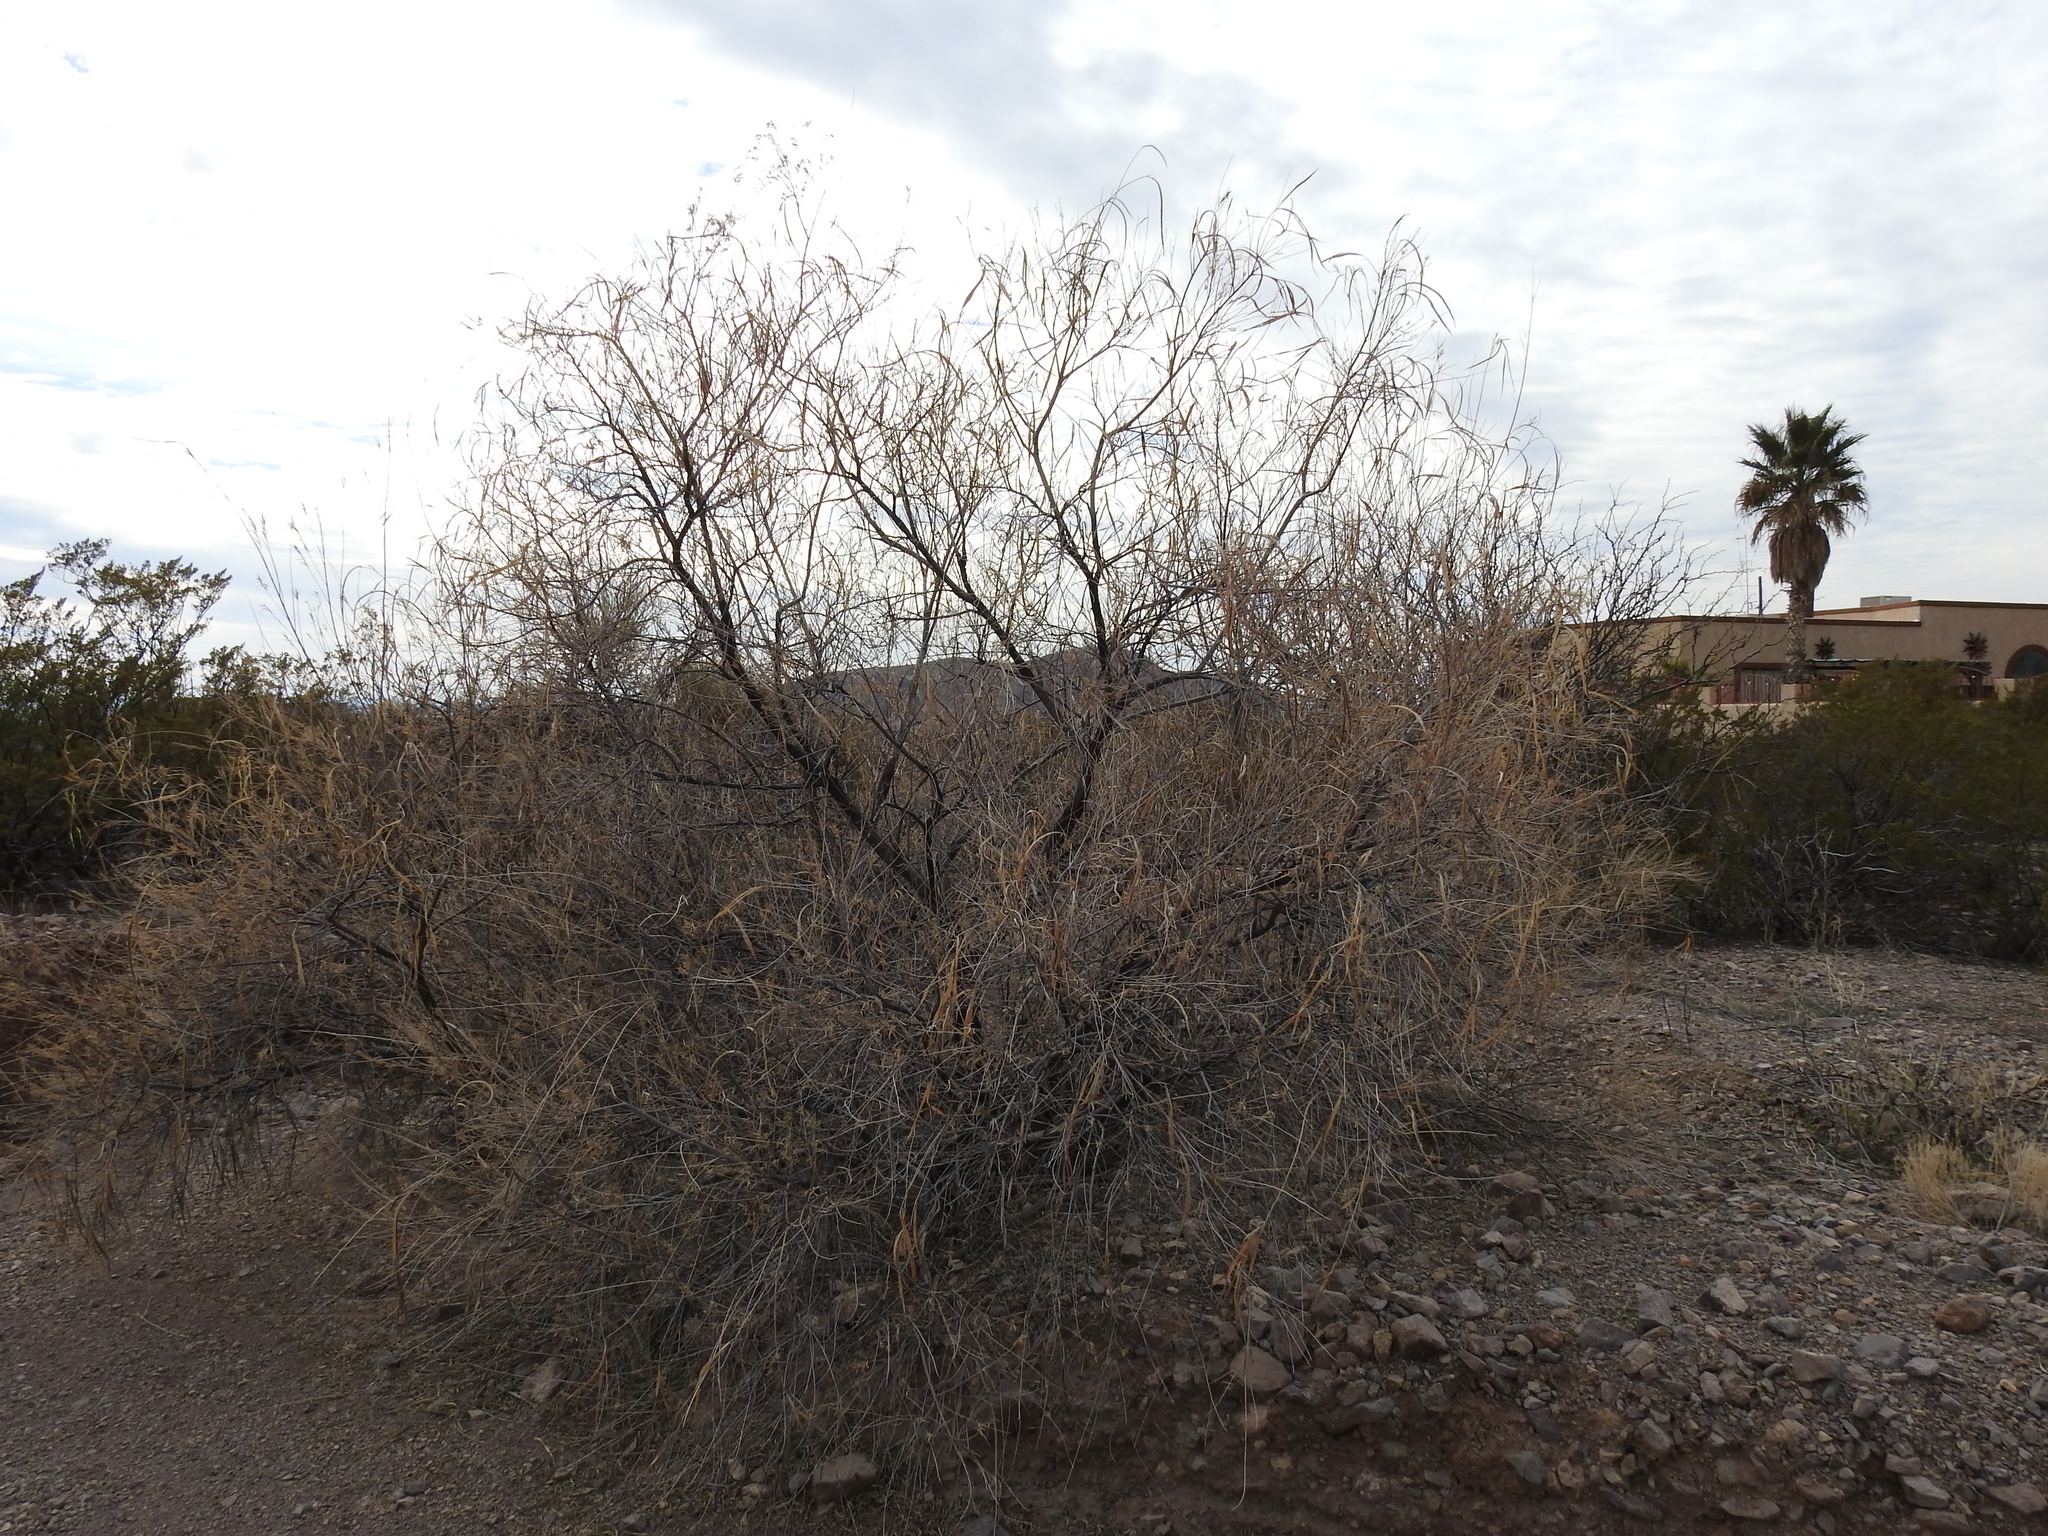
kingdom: Plantae
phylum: Tracheophyta
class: Magnoliopsida
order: Lamiales
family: Bignoniaceae
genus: Chilopsis
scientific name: Chilopsis linearis
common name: Desert-willow
